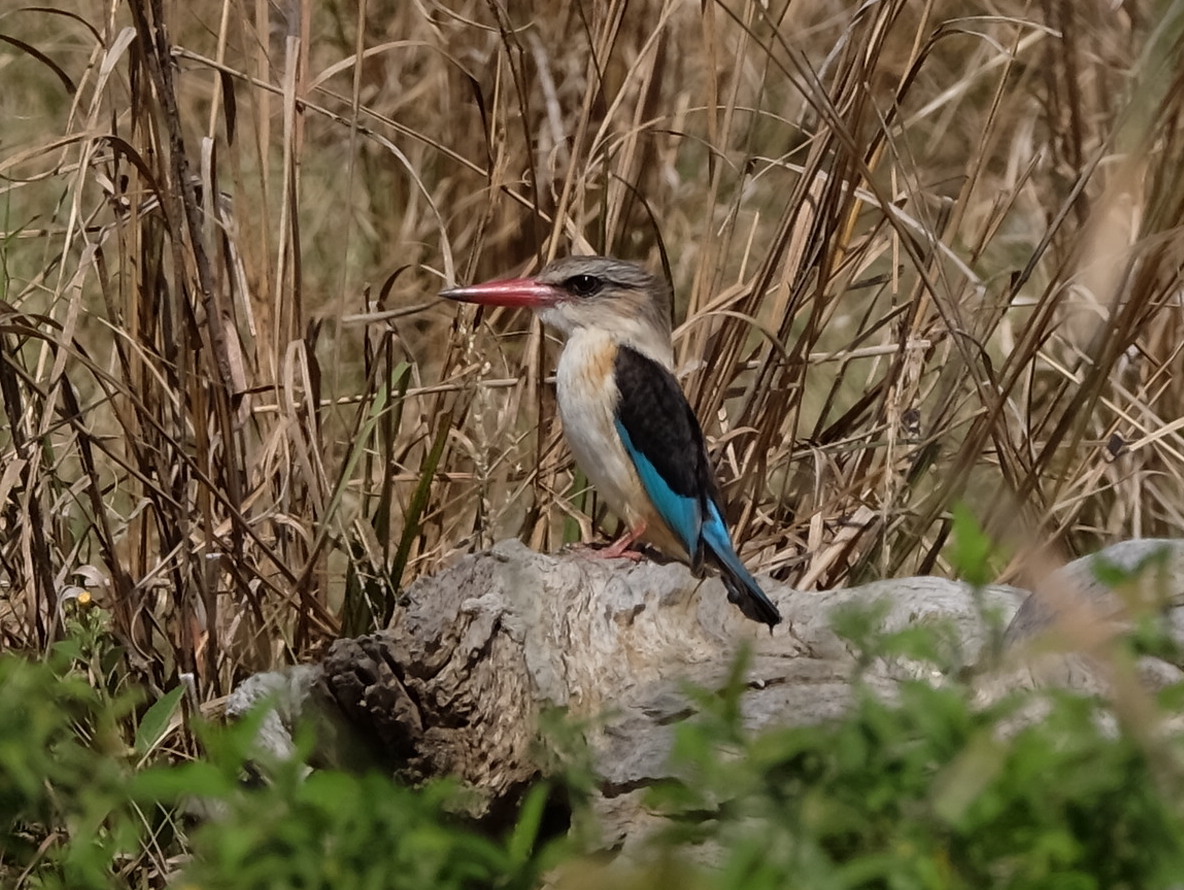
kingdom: Animalia
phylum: Chordata
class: Aves
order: Coraciiformes
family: Alcedinidae
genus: Halcyon
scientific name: Halcyon albiventris
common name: Brown-hooded kingfisher
